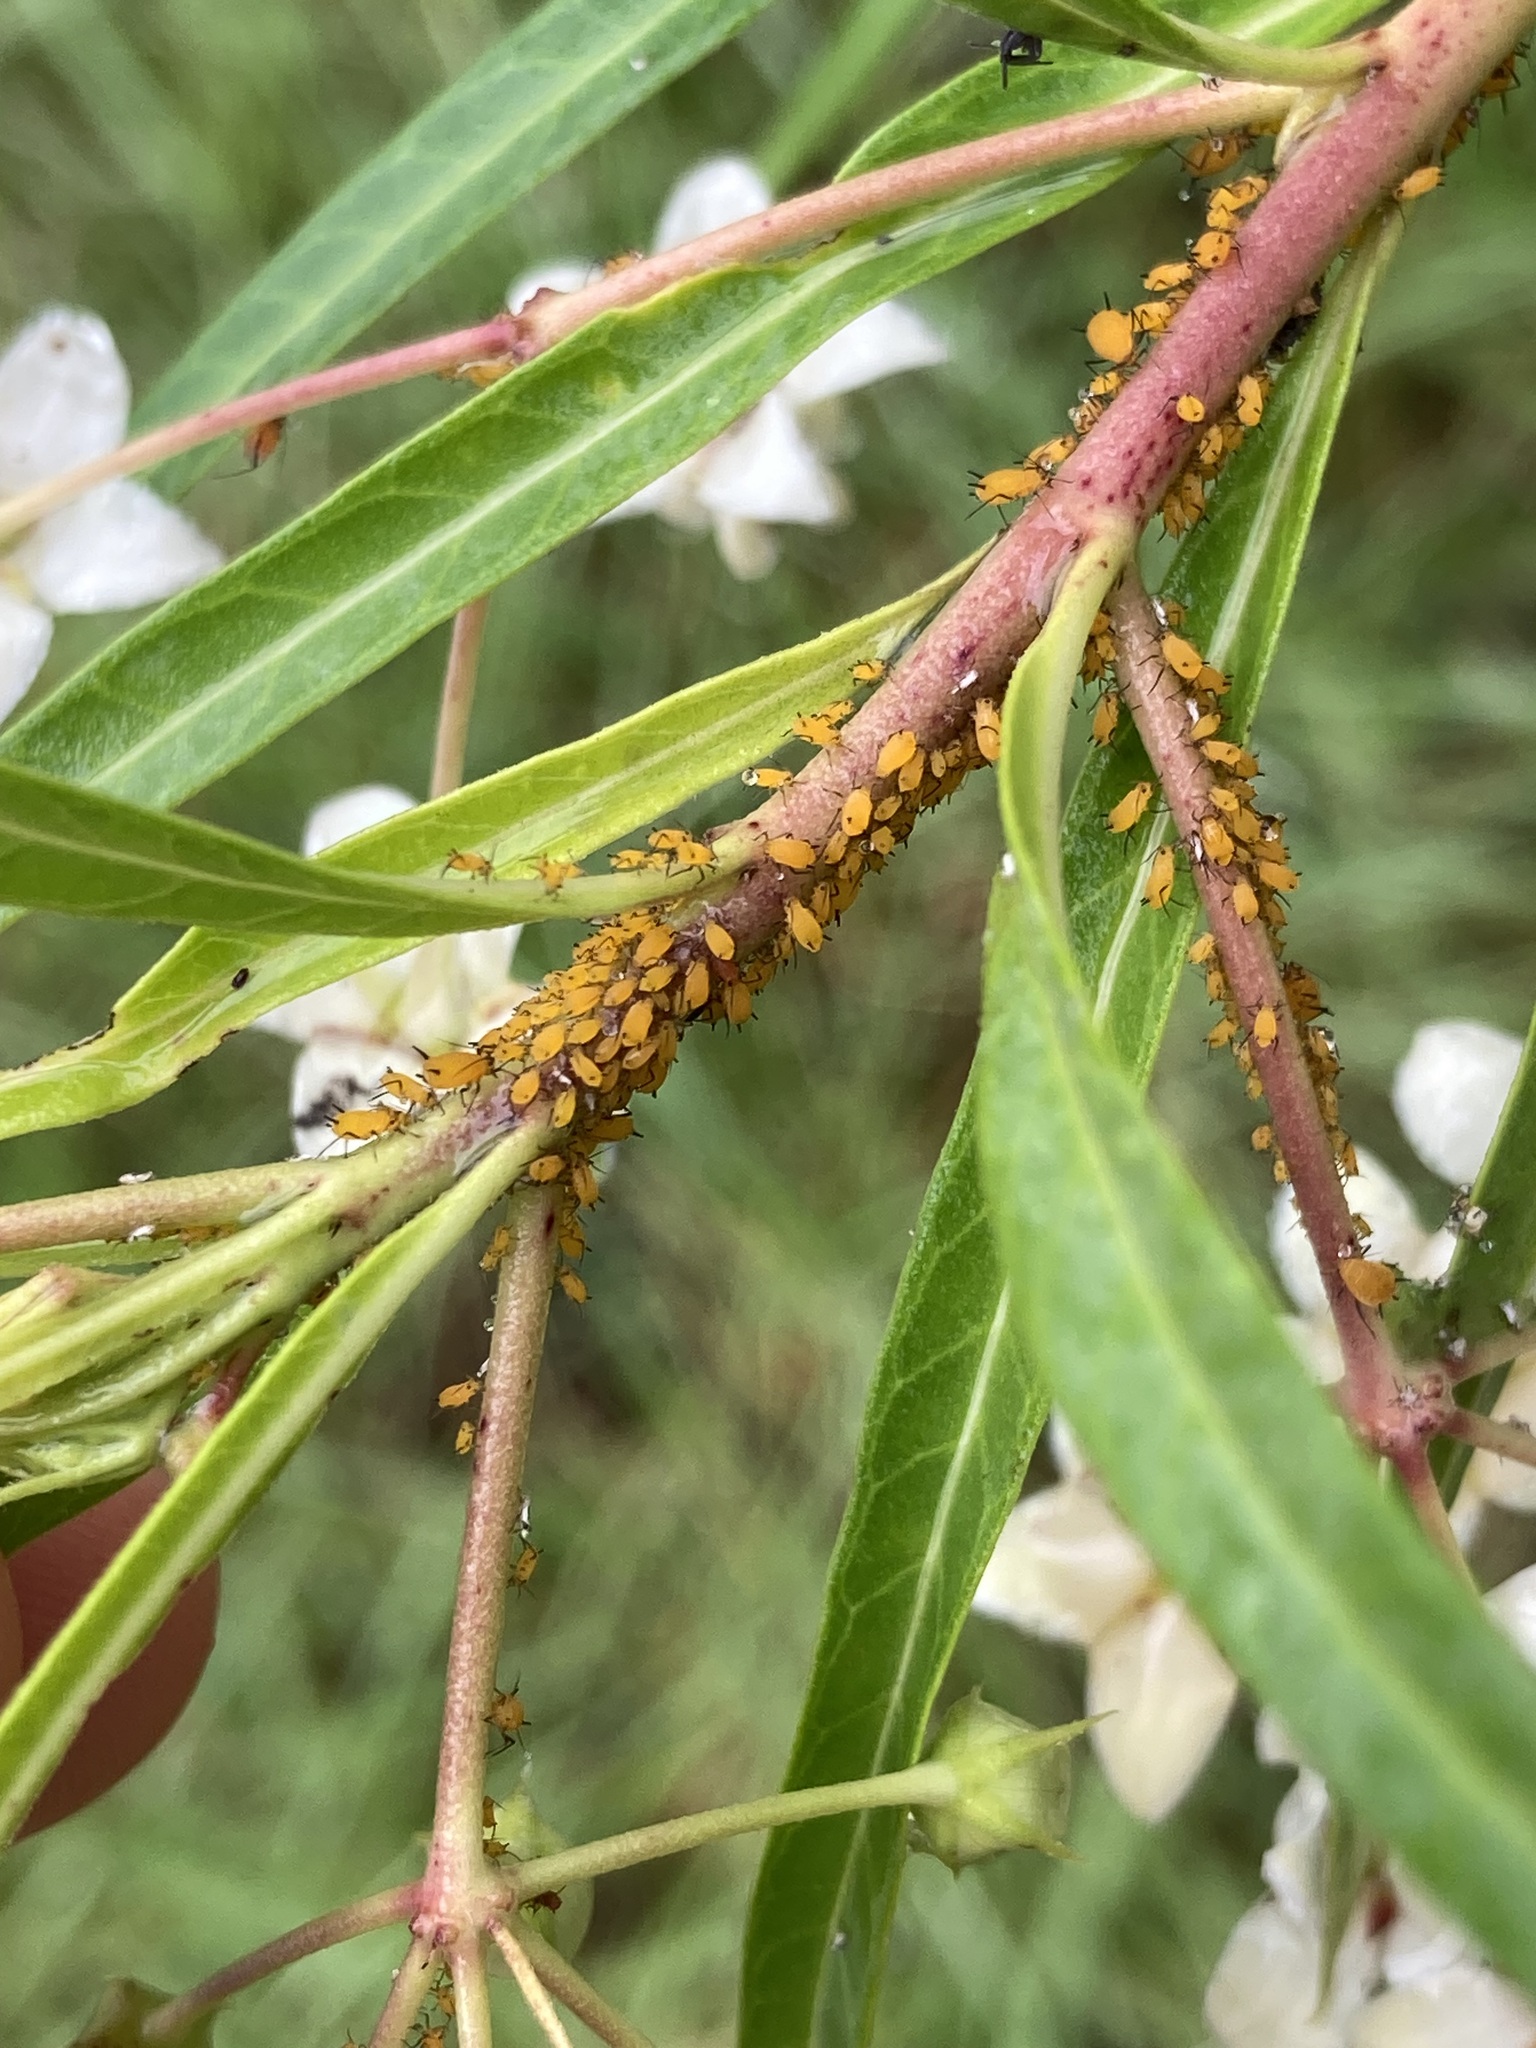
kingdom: Animalia
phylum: Arthropoda
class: Insecta
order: Hemiptera
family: Aphididae
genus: Aphis
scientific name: Aphis nerii
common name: Oleander aphid
